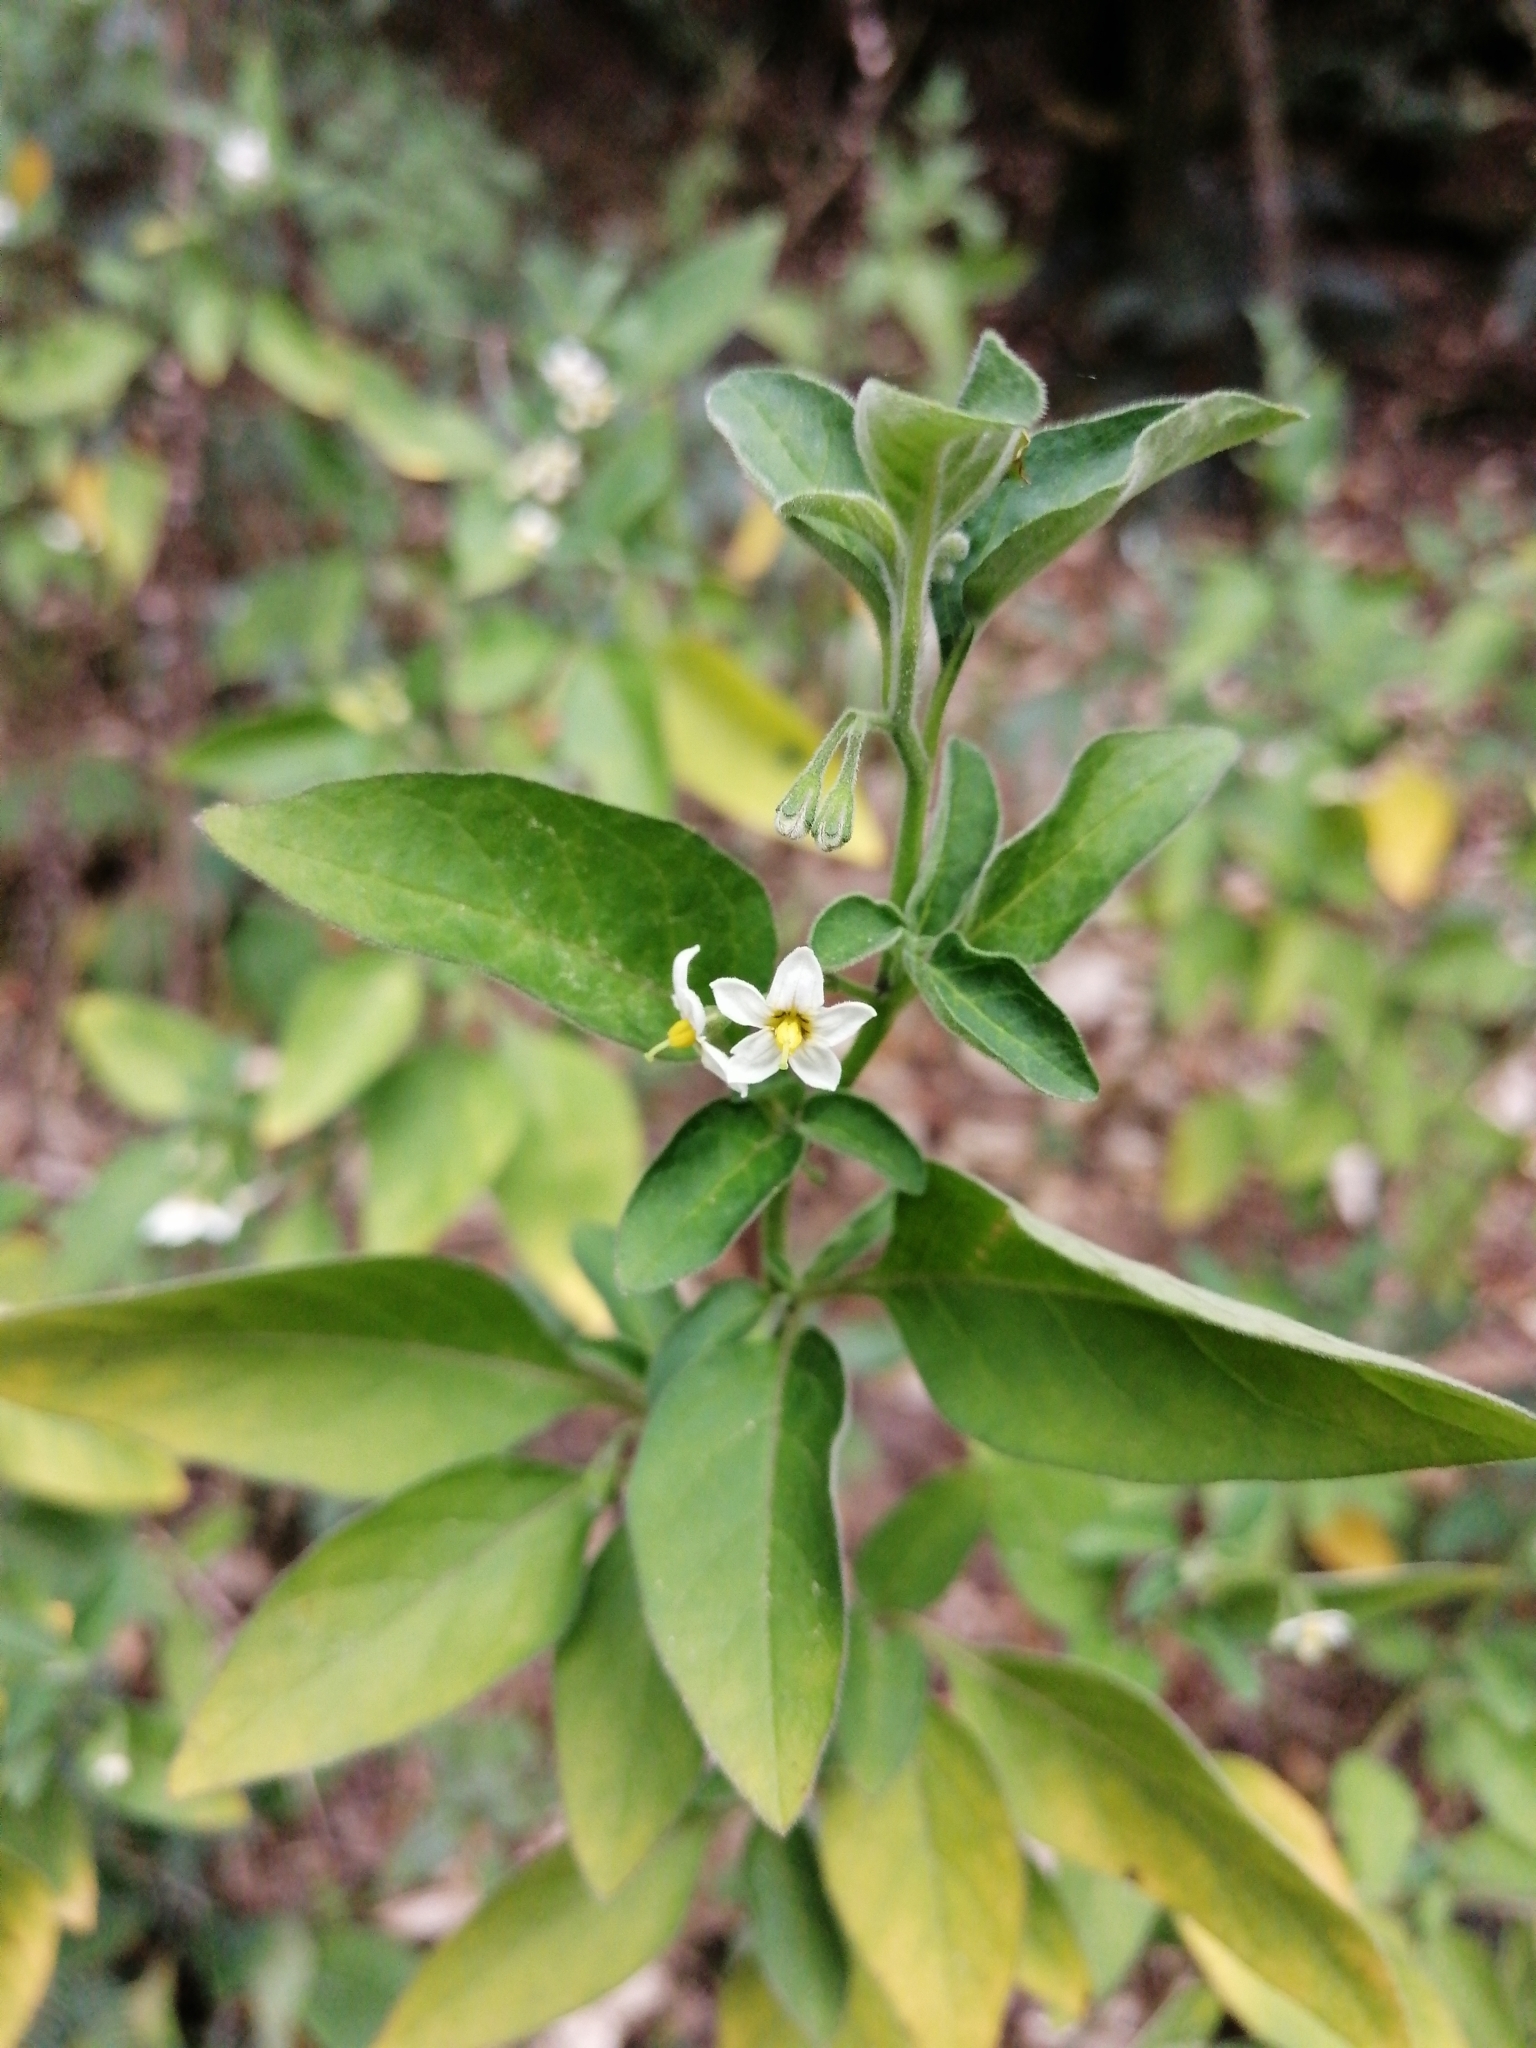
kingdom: Plantae
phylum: Tracheophyta
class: Magnoliopsida
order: Solanales
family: Solanaceae
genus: Solanum
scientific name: Solanum chenopodioides
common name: Tall nightshade
